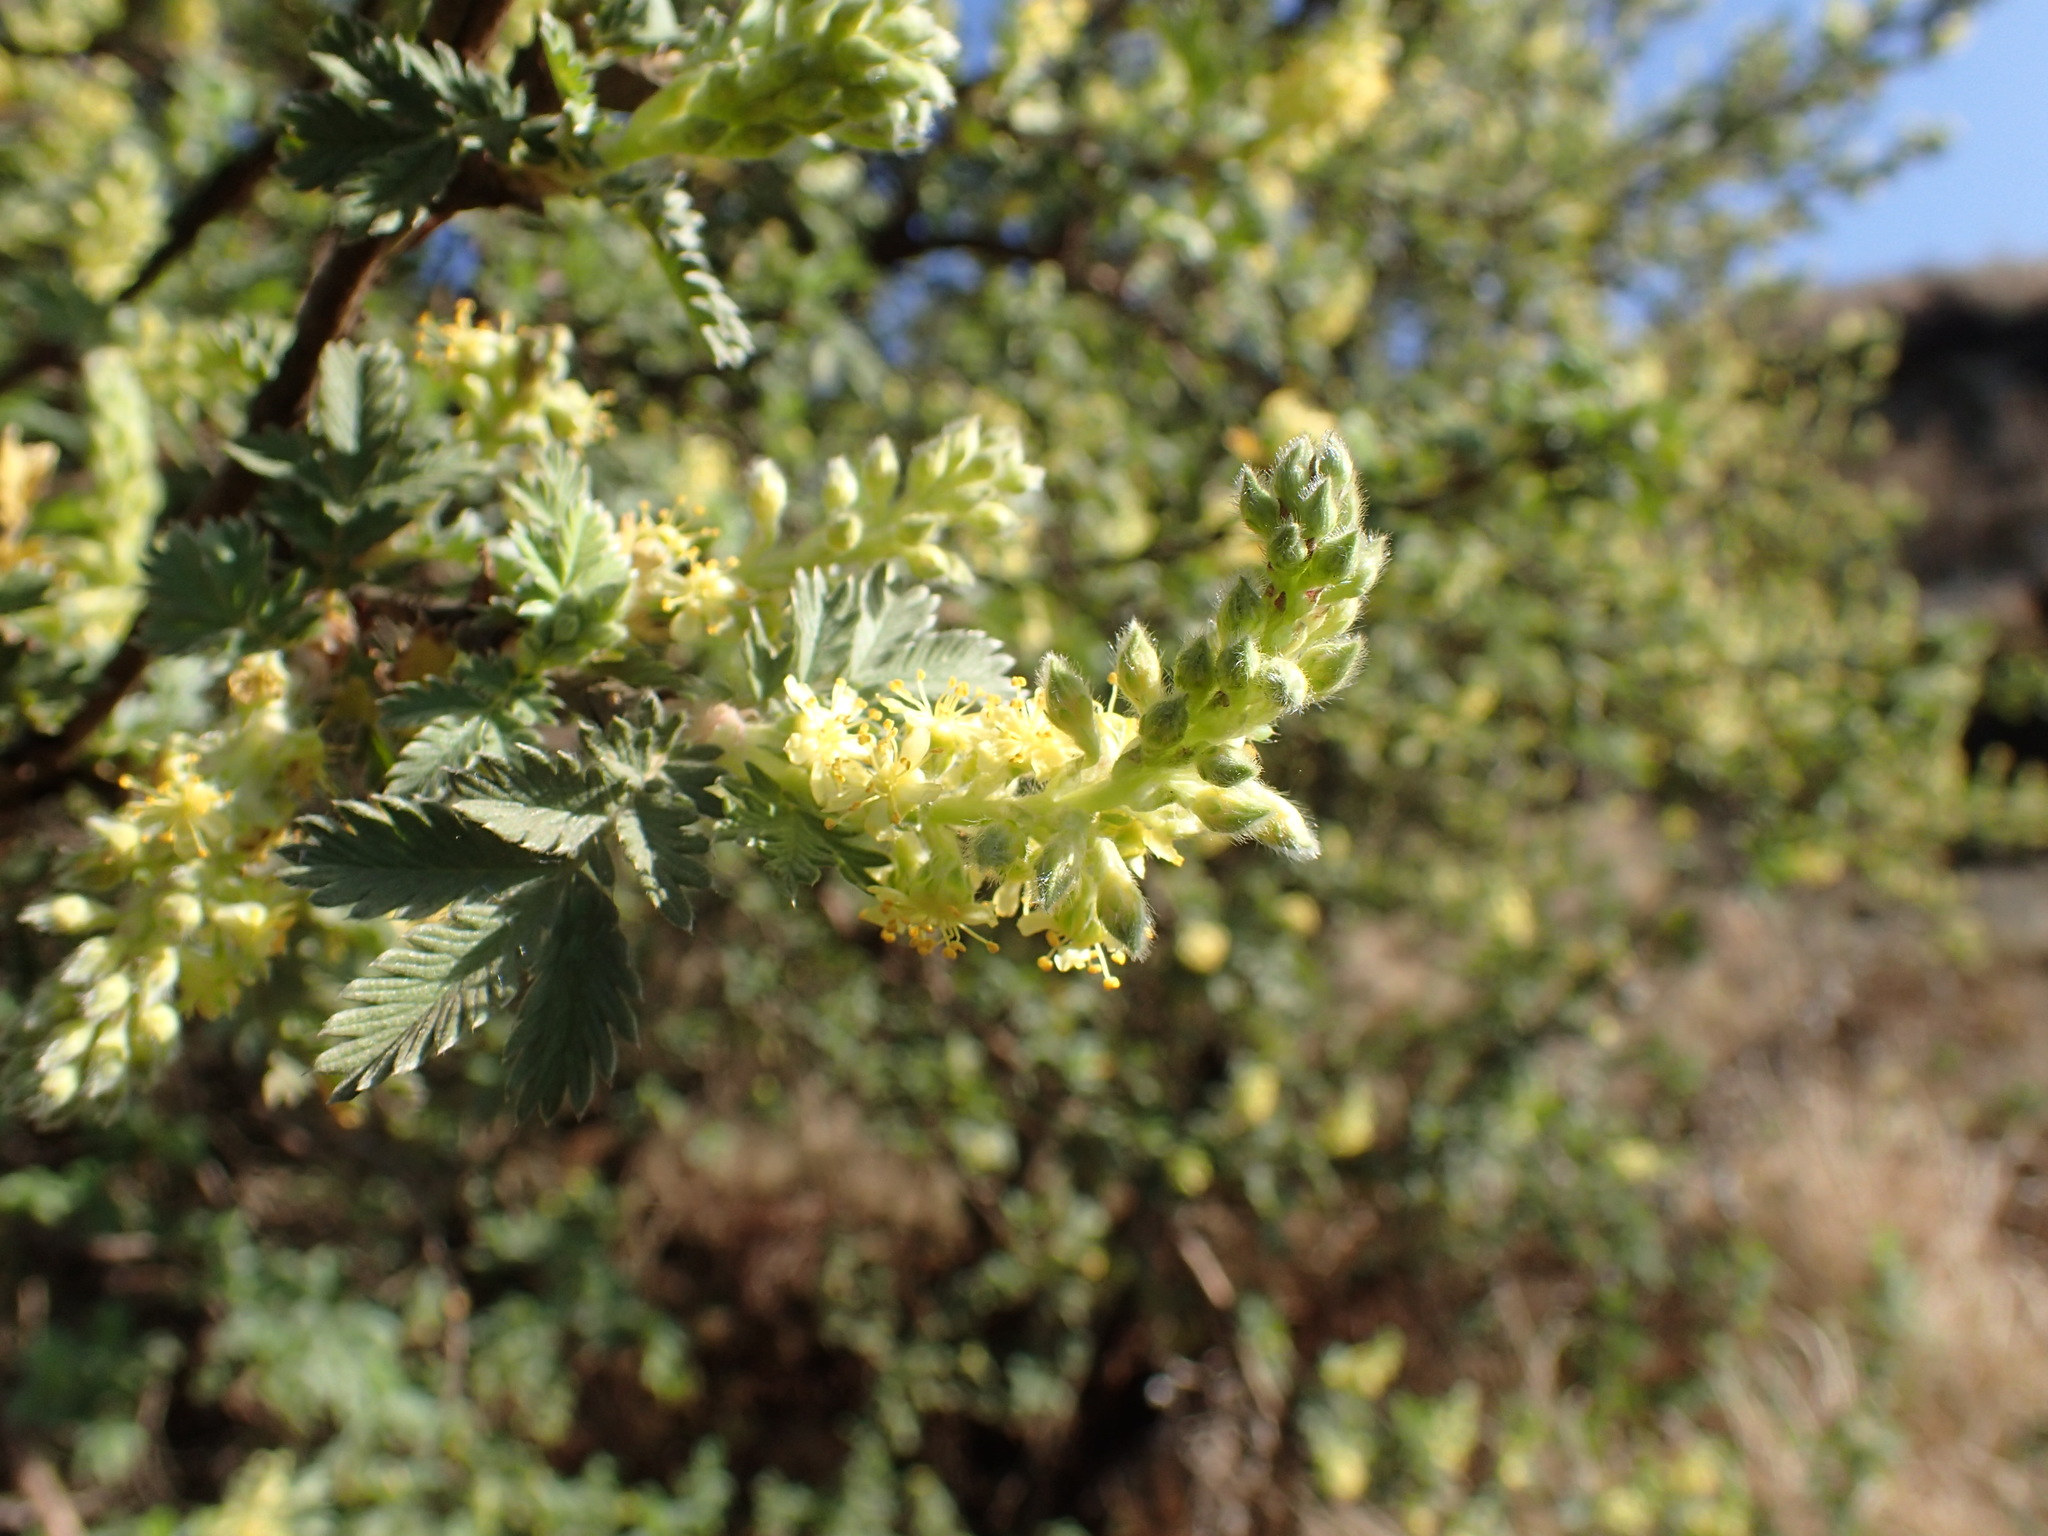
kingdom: Plantae
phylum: Tracheophyta
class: Magnoliopsida
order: Rosales
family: Rosaceae
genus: Leucosidea
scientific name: Leucosidea sericea
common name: Oldwood
